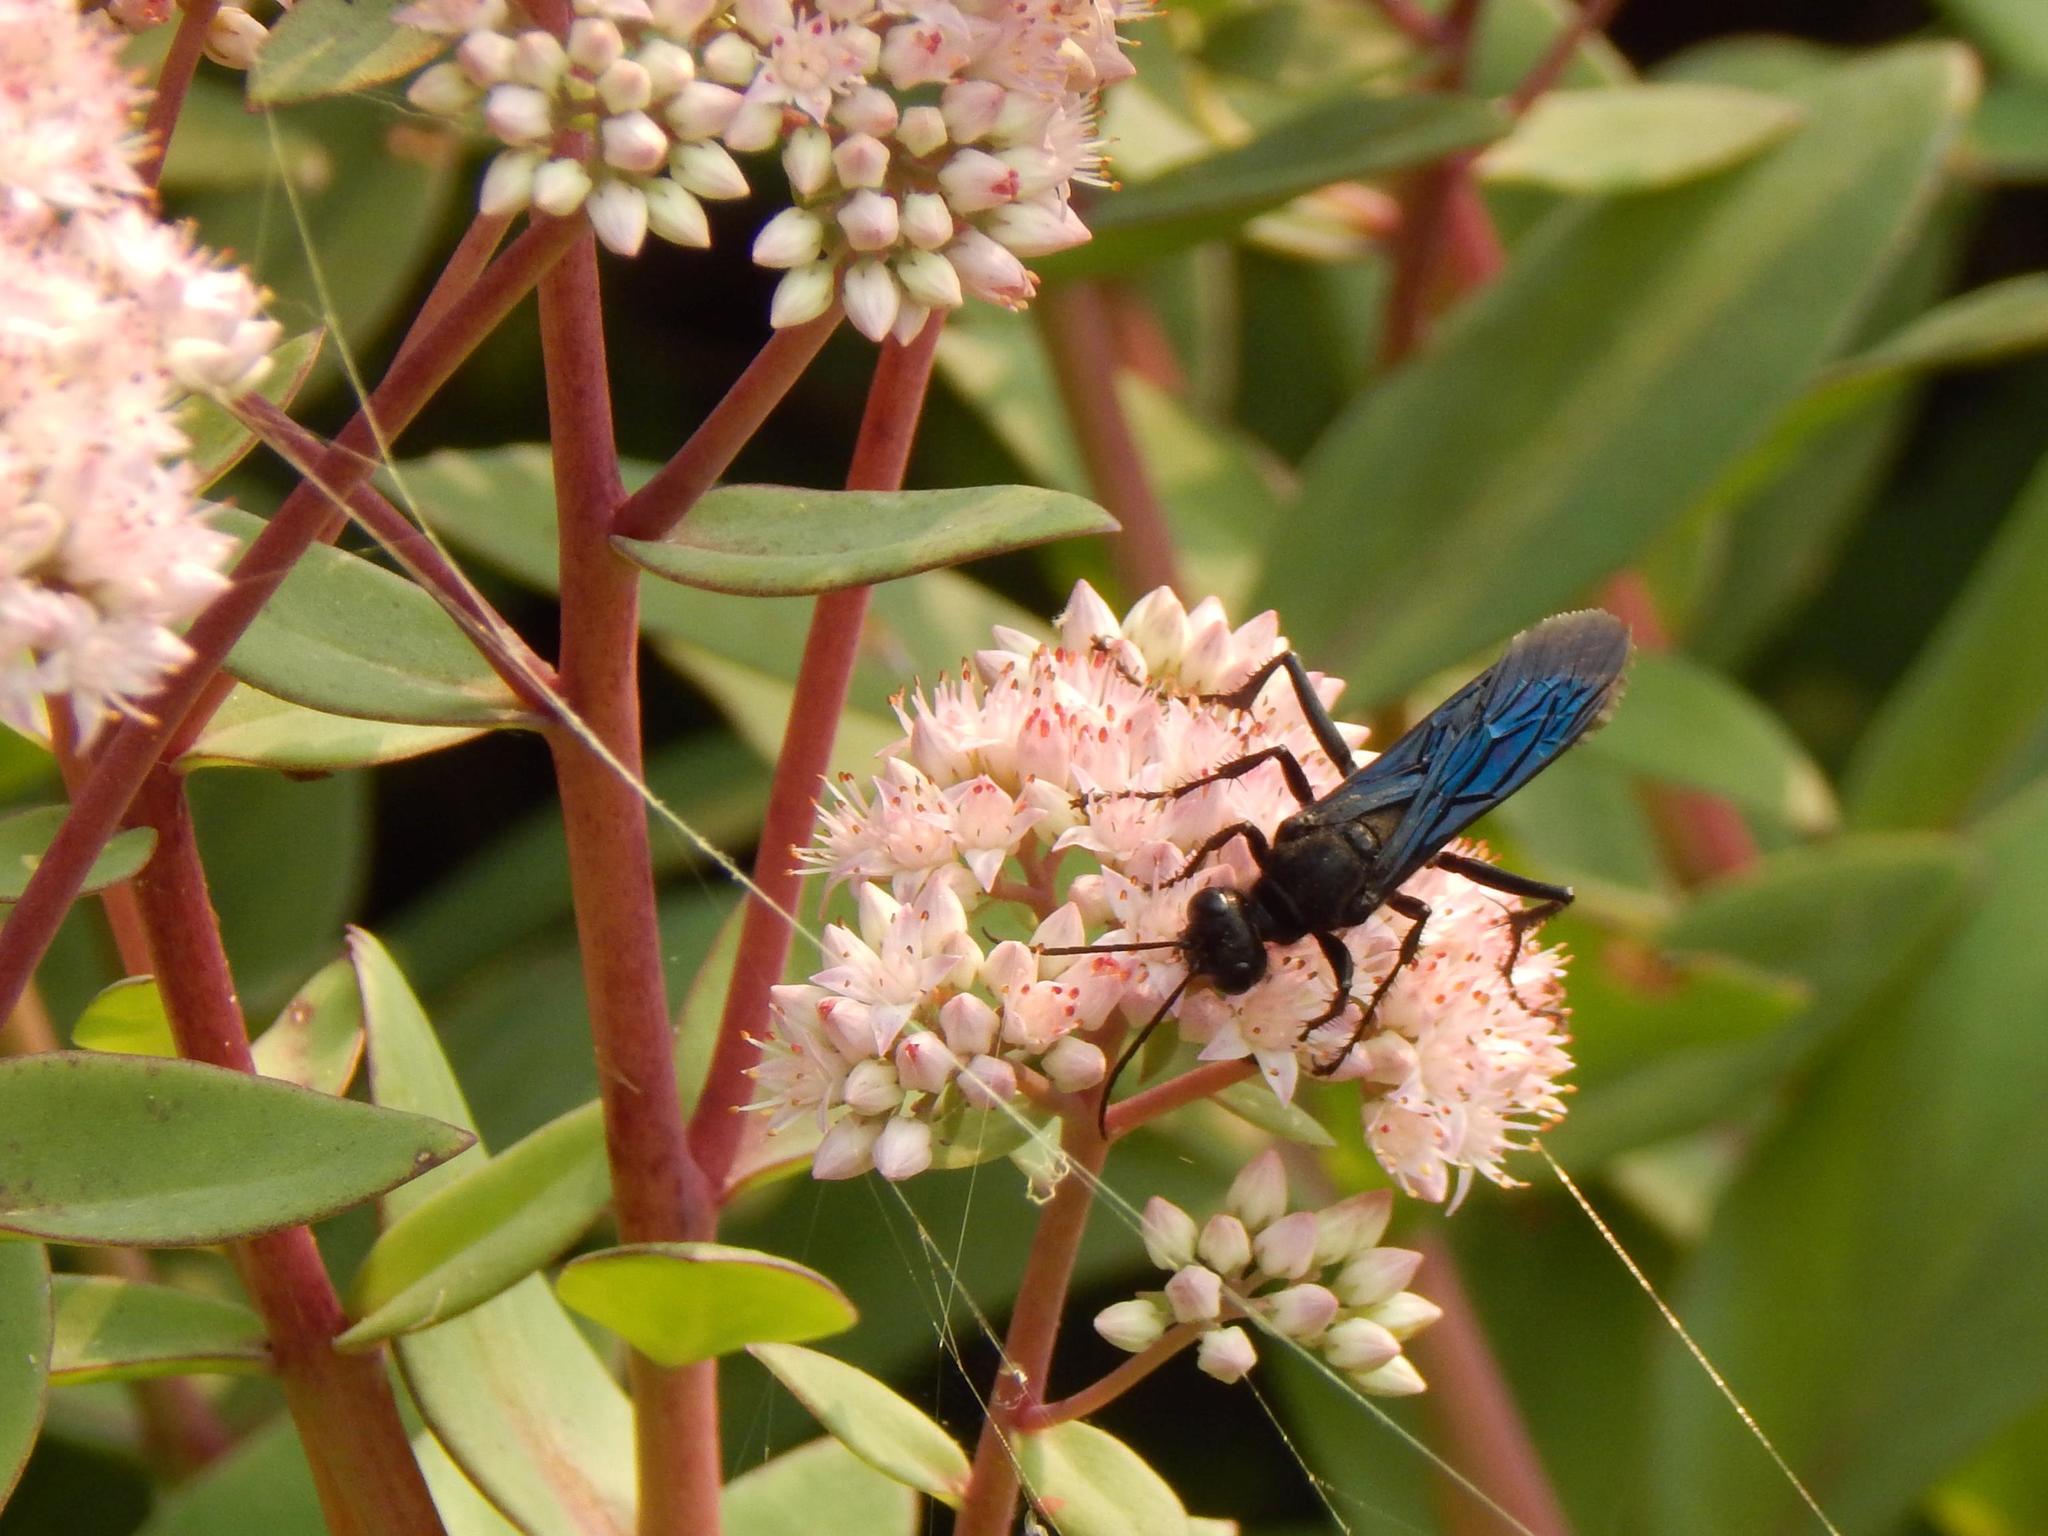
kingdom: Animalia
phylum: Arthropoda
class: Insecta
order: Hymenoptera
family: Sphecidae
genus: Sphex
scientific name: Sphex pensylvanicus
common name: Great black digger wasp
